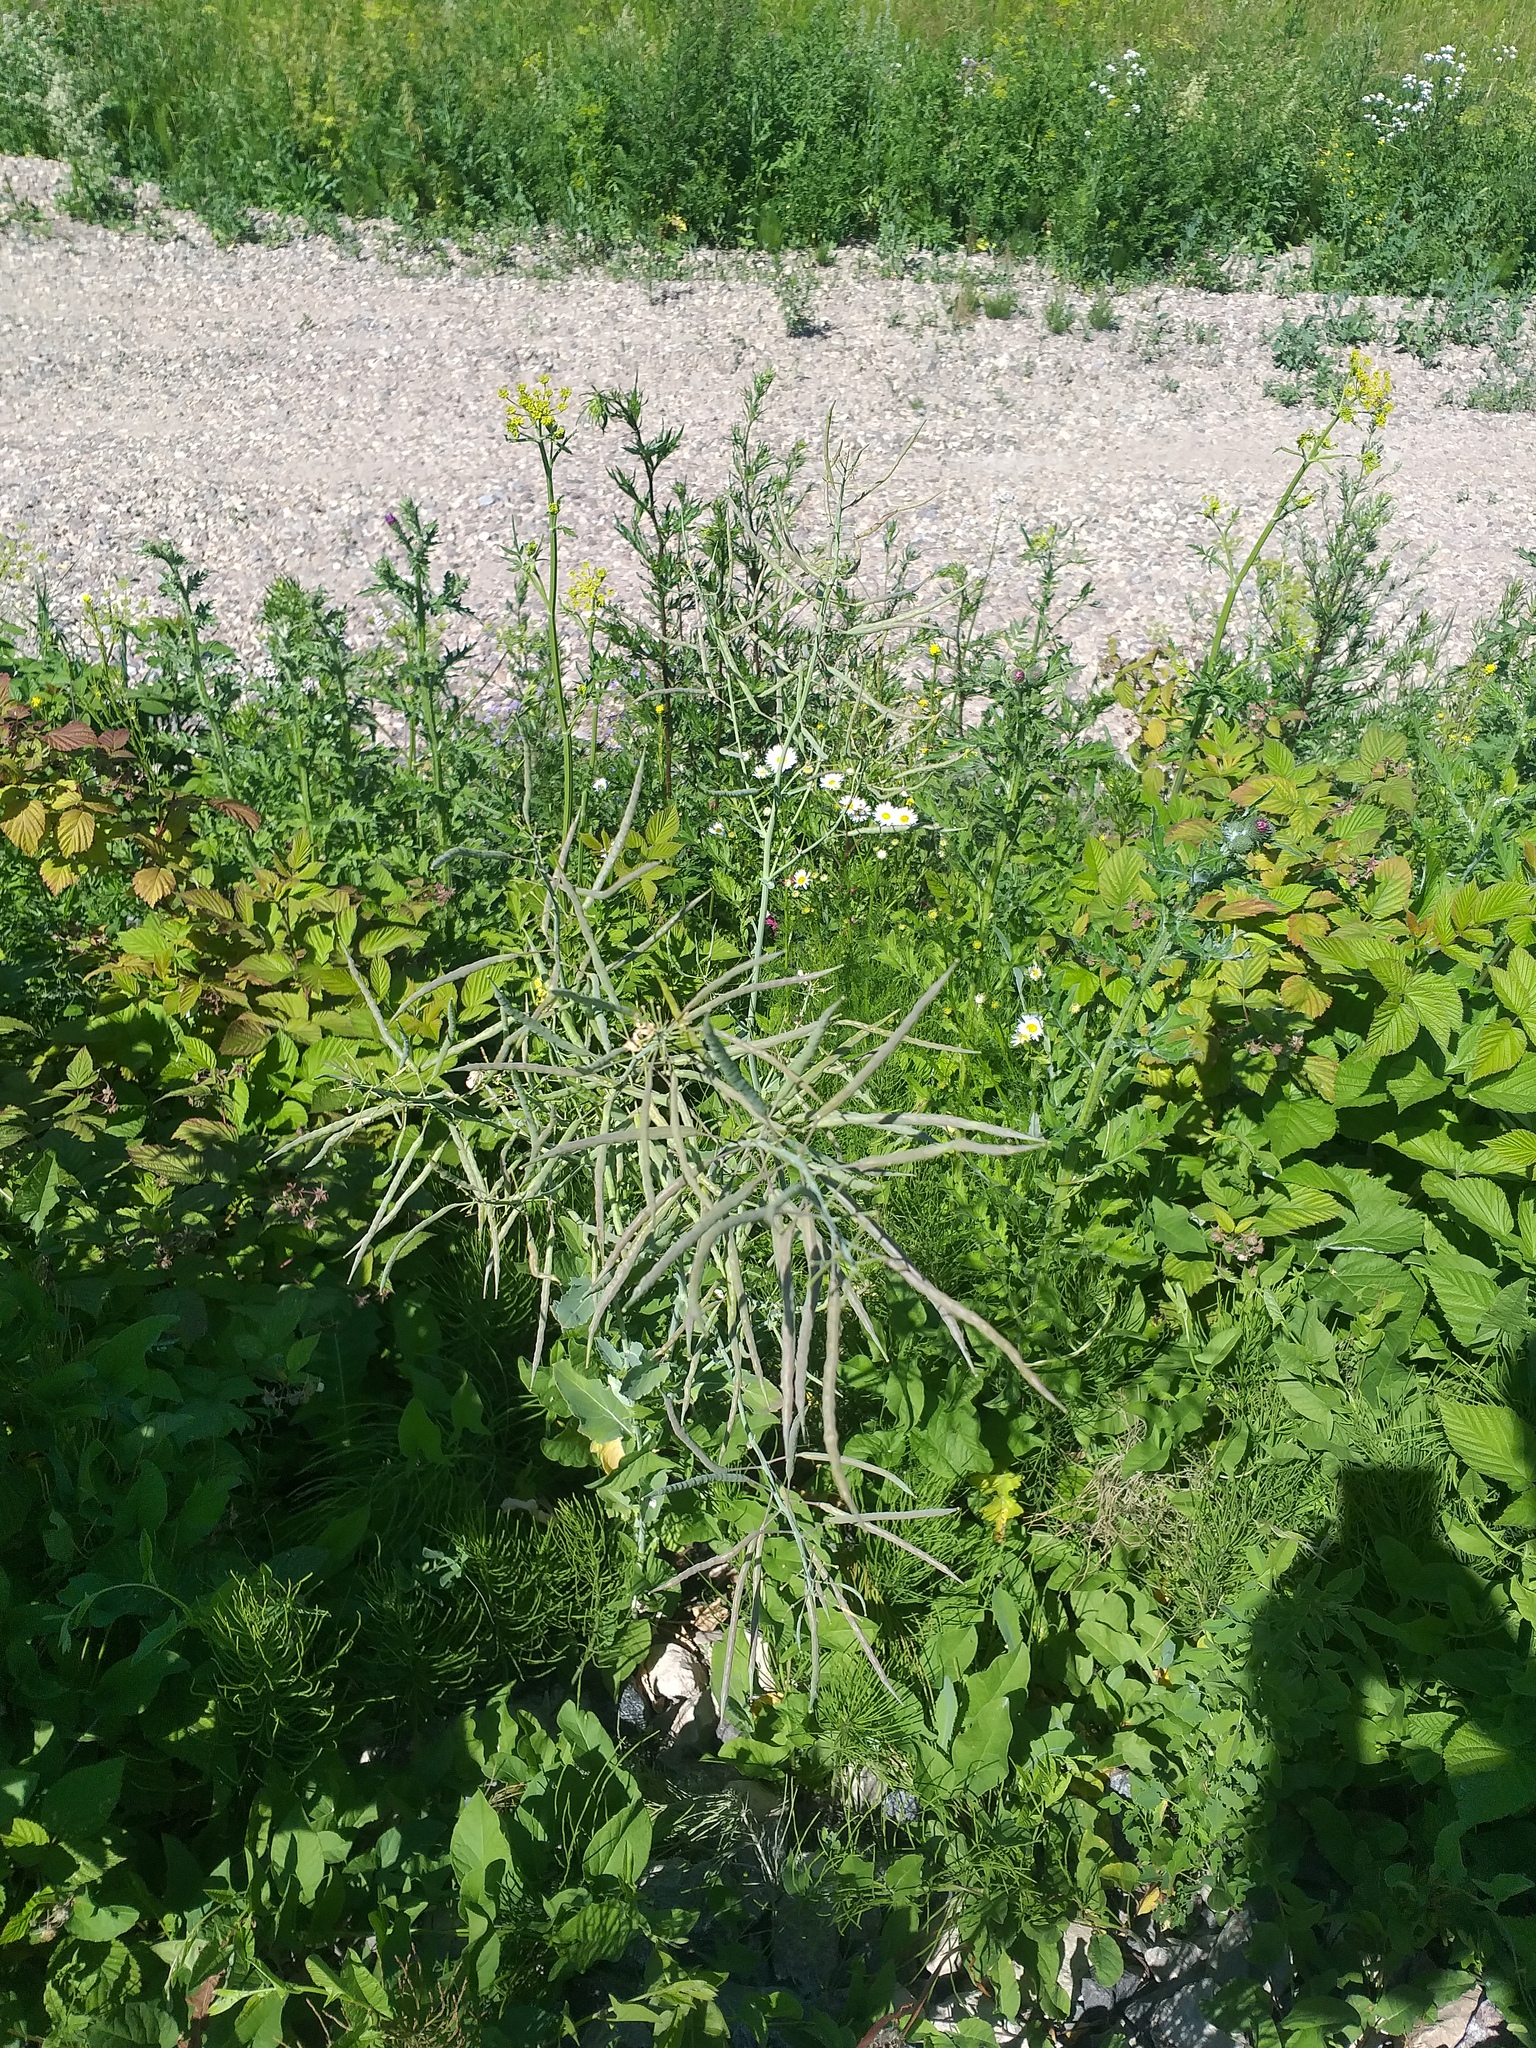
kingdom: Plantae
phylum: Tracheophyta
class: Magnoliopsida
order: Brassicales
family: Brassicaceae
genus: Brassica
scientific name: Brassica napus
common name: Rape
